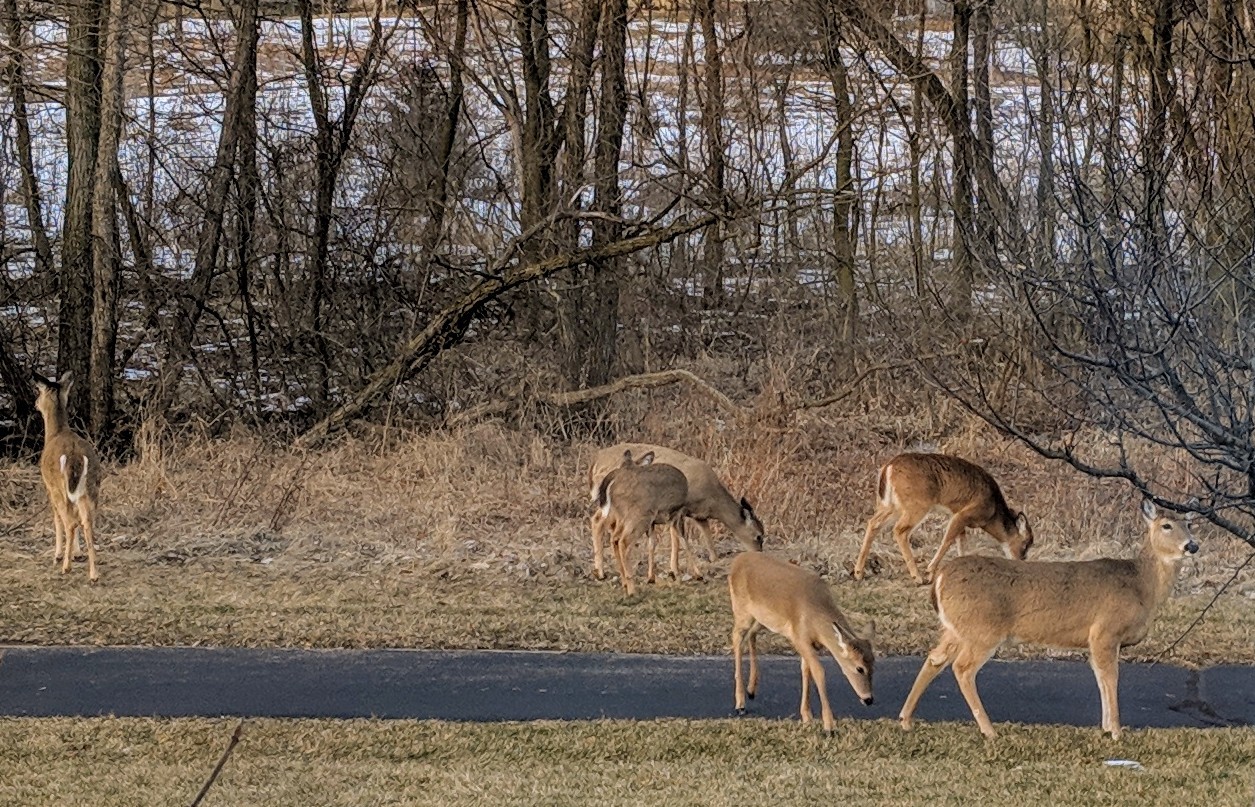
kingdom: Animalia
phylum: Chordata
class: Mammalia
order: Artiodactyla
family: Cervidae
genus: Odocoileus
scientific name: Odocoileus virginianus
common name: White-tailed deer
